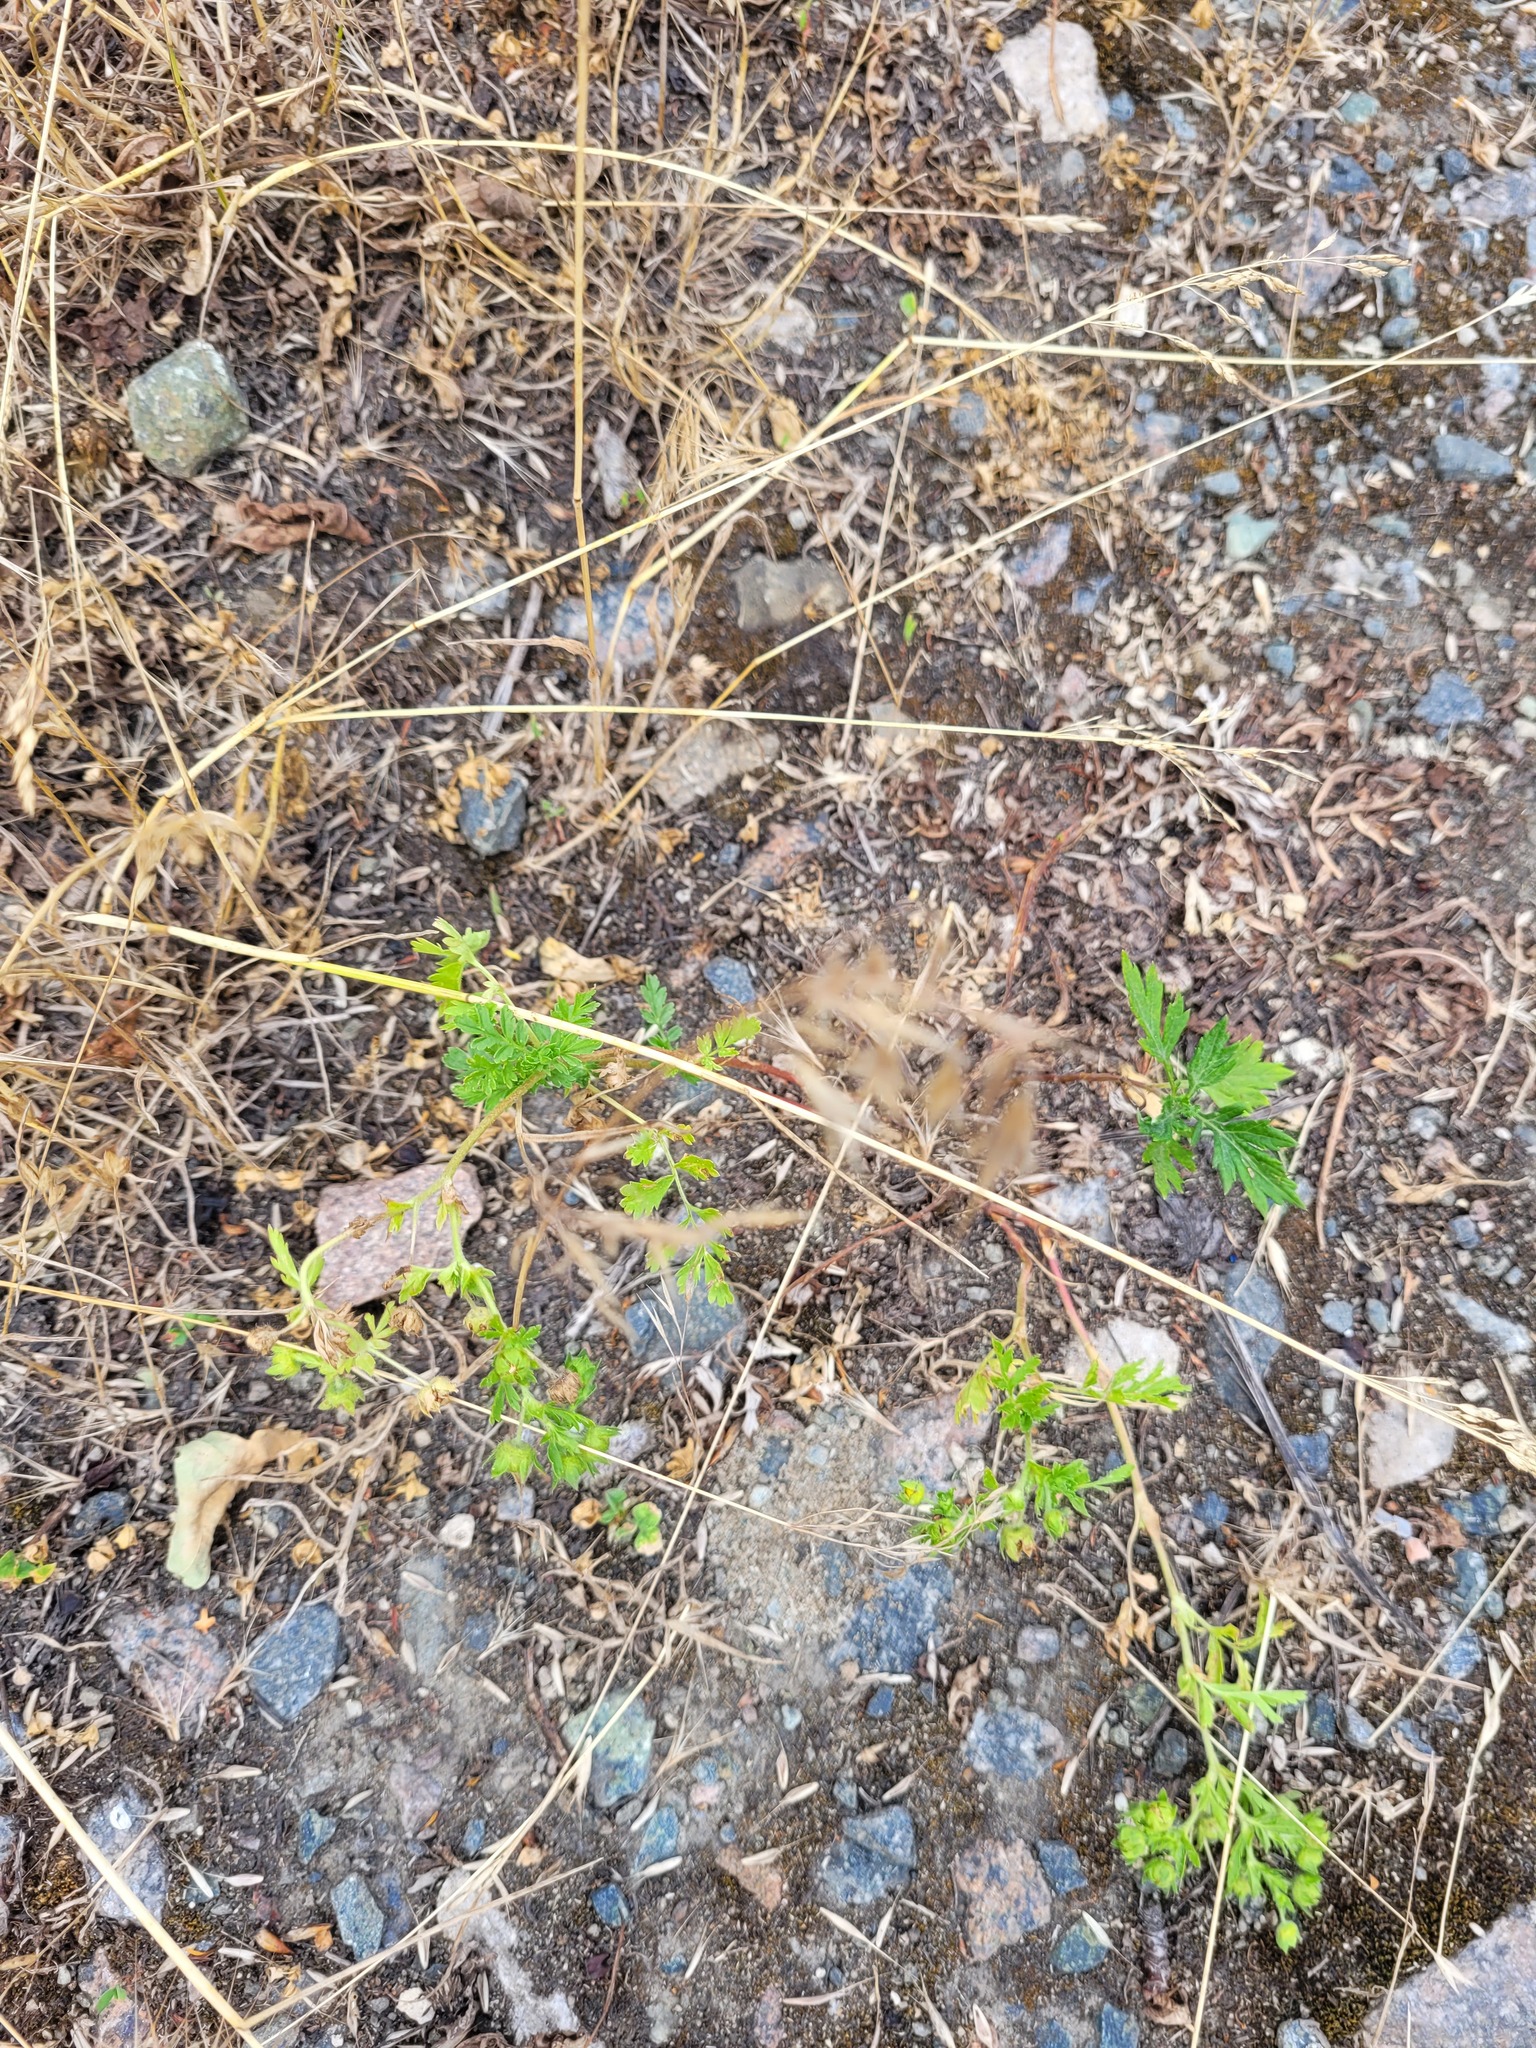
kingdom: Plantae
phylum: Tracheophyta
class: Magnoliopsida
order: Rosales
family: Rosaceae
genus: Potentilla
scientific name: Potentilla supina
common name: Prostrate cinquefoil
